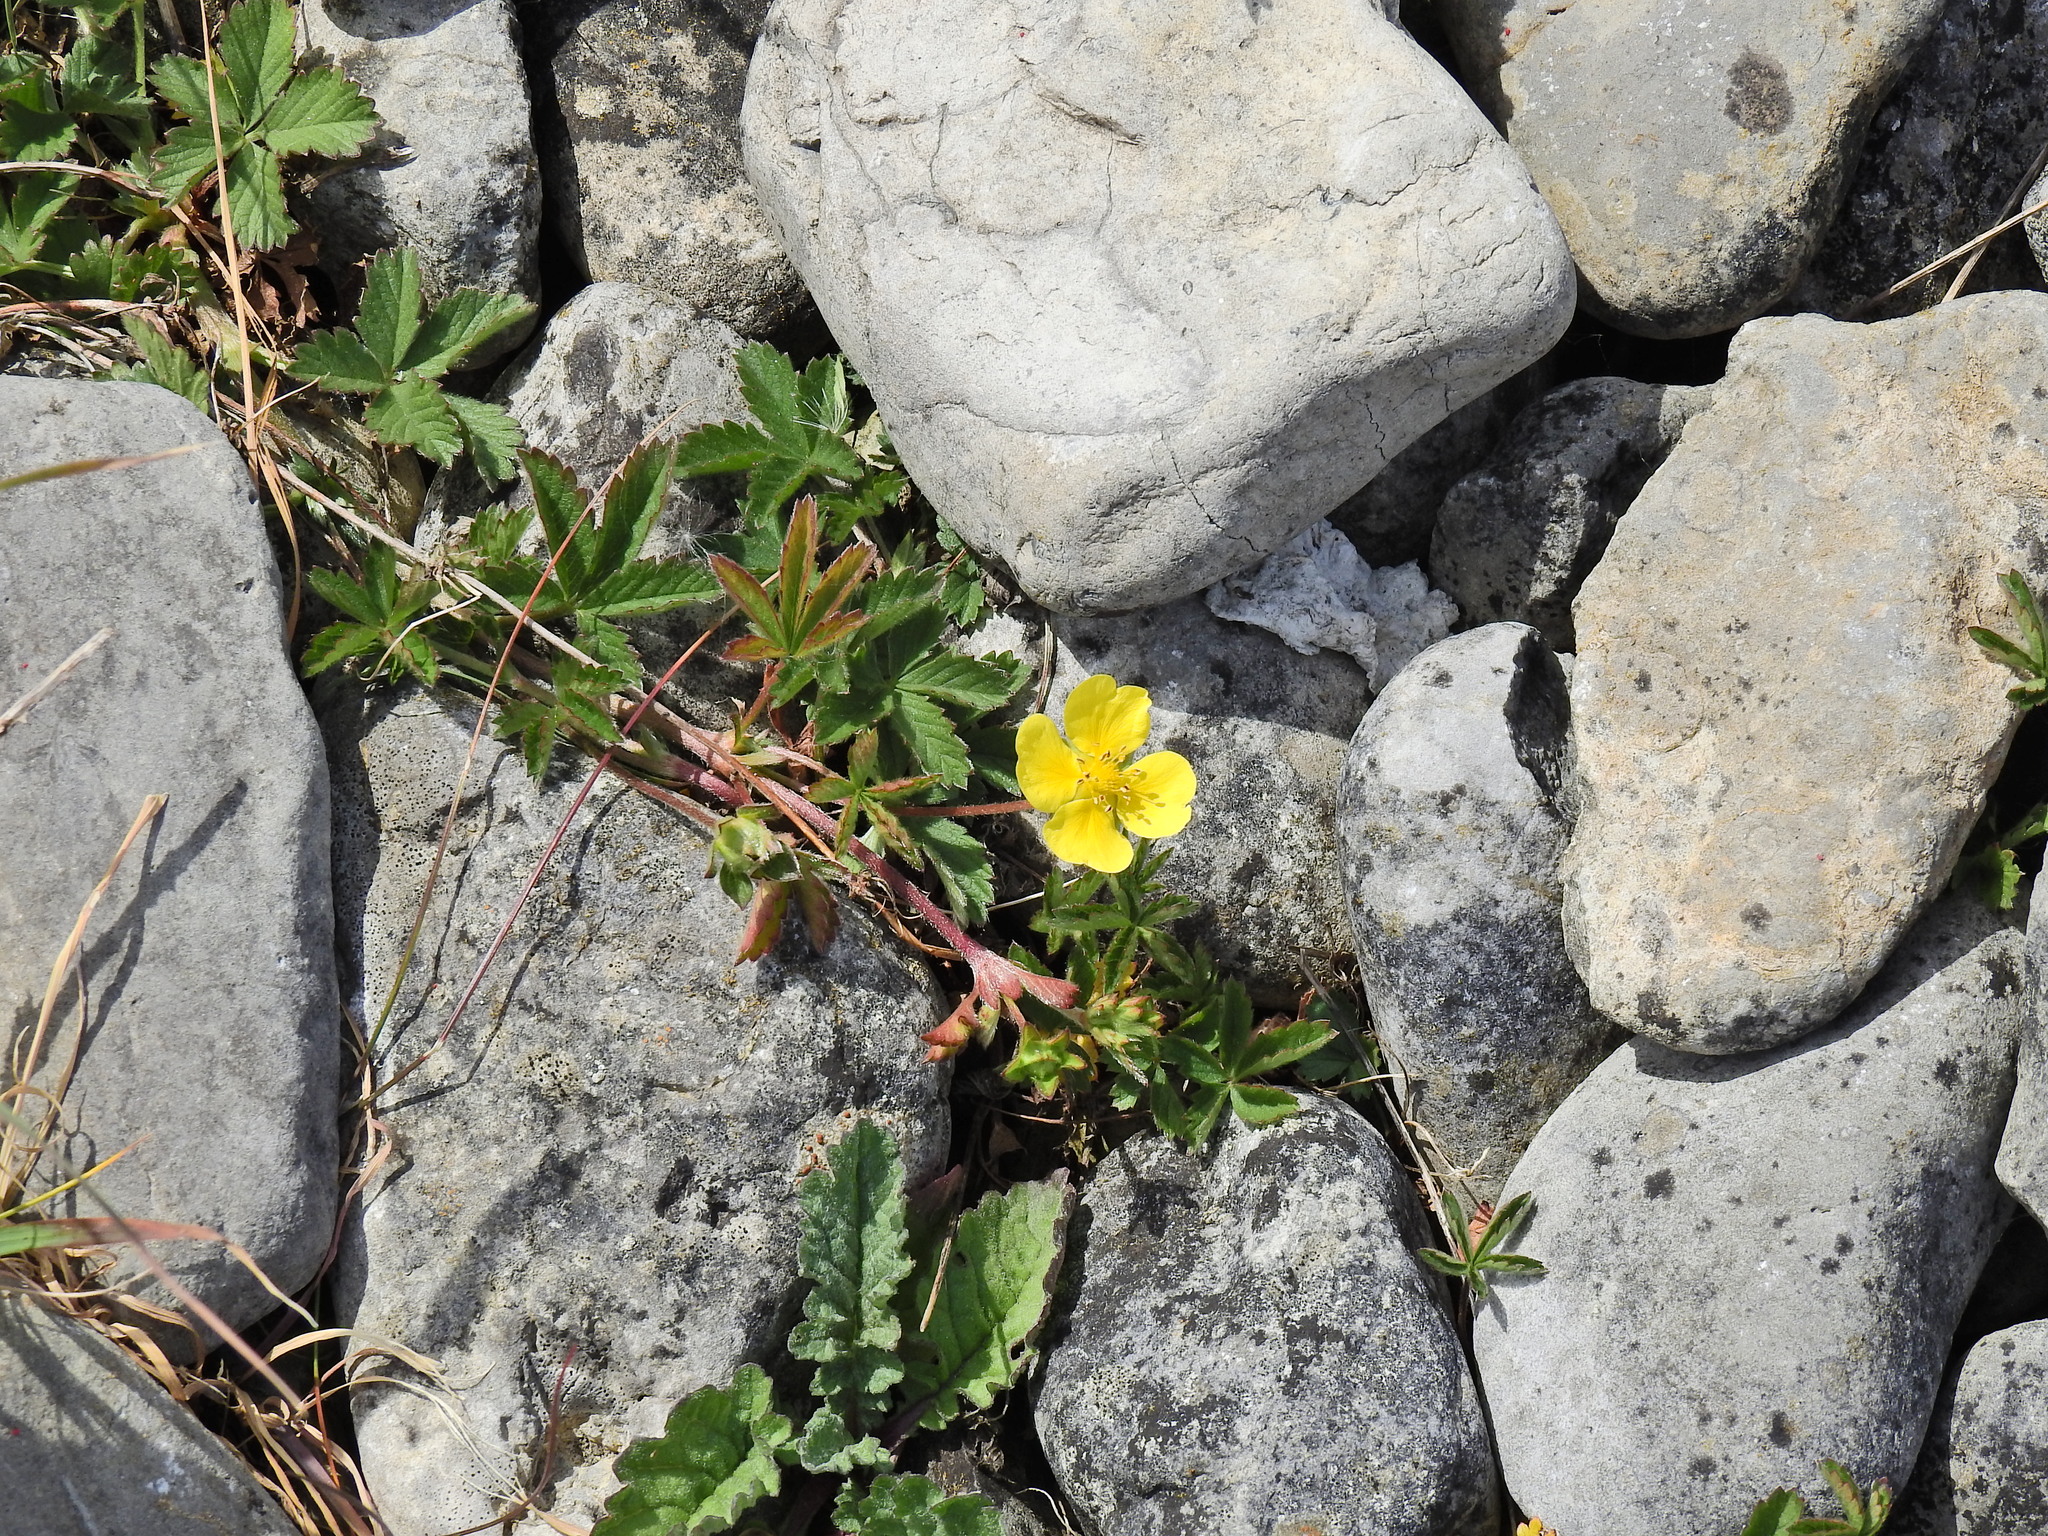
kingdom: Plantae
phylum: Tracheophyta
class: Magnoliopsida
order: Rosales
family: Rosaceae
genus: Potentilla
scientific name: Potentilla reptans
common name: Creeping cinquefoil
